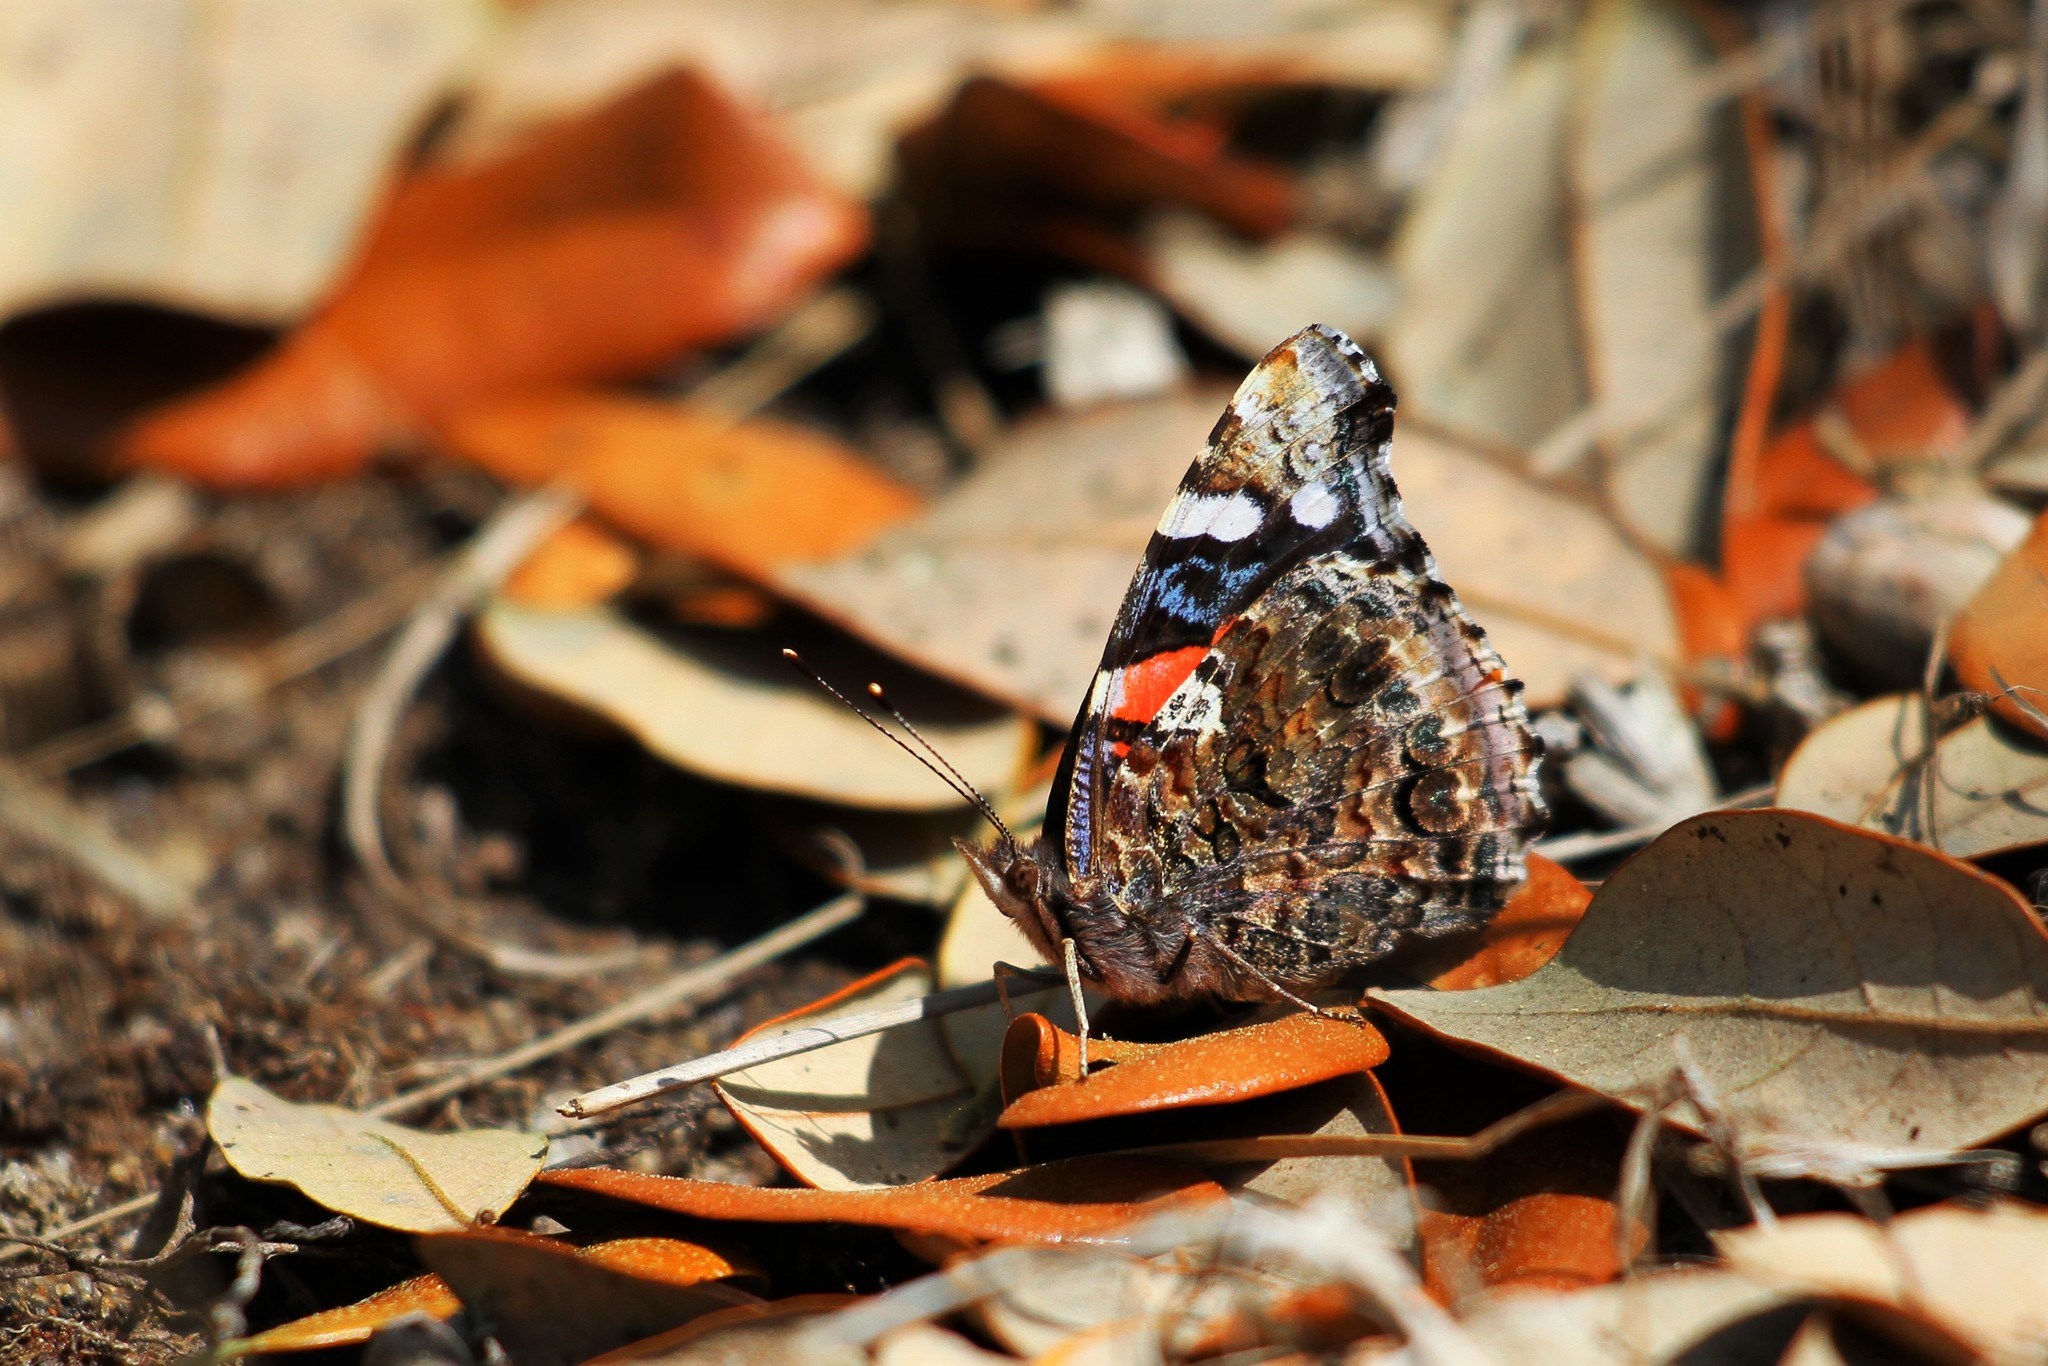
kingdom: Animalia
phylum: Arthropoda
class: Insecta
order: Lepidoptera
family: Nymphalidae
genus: Vanessa
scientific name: Vanessa atalanta
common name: Red admiral
